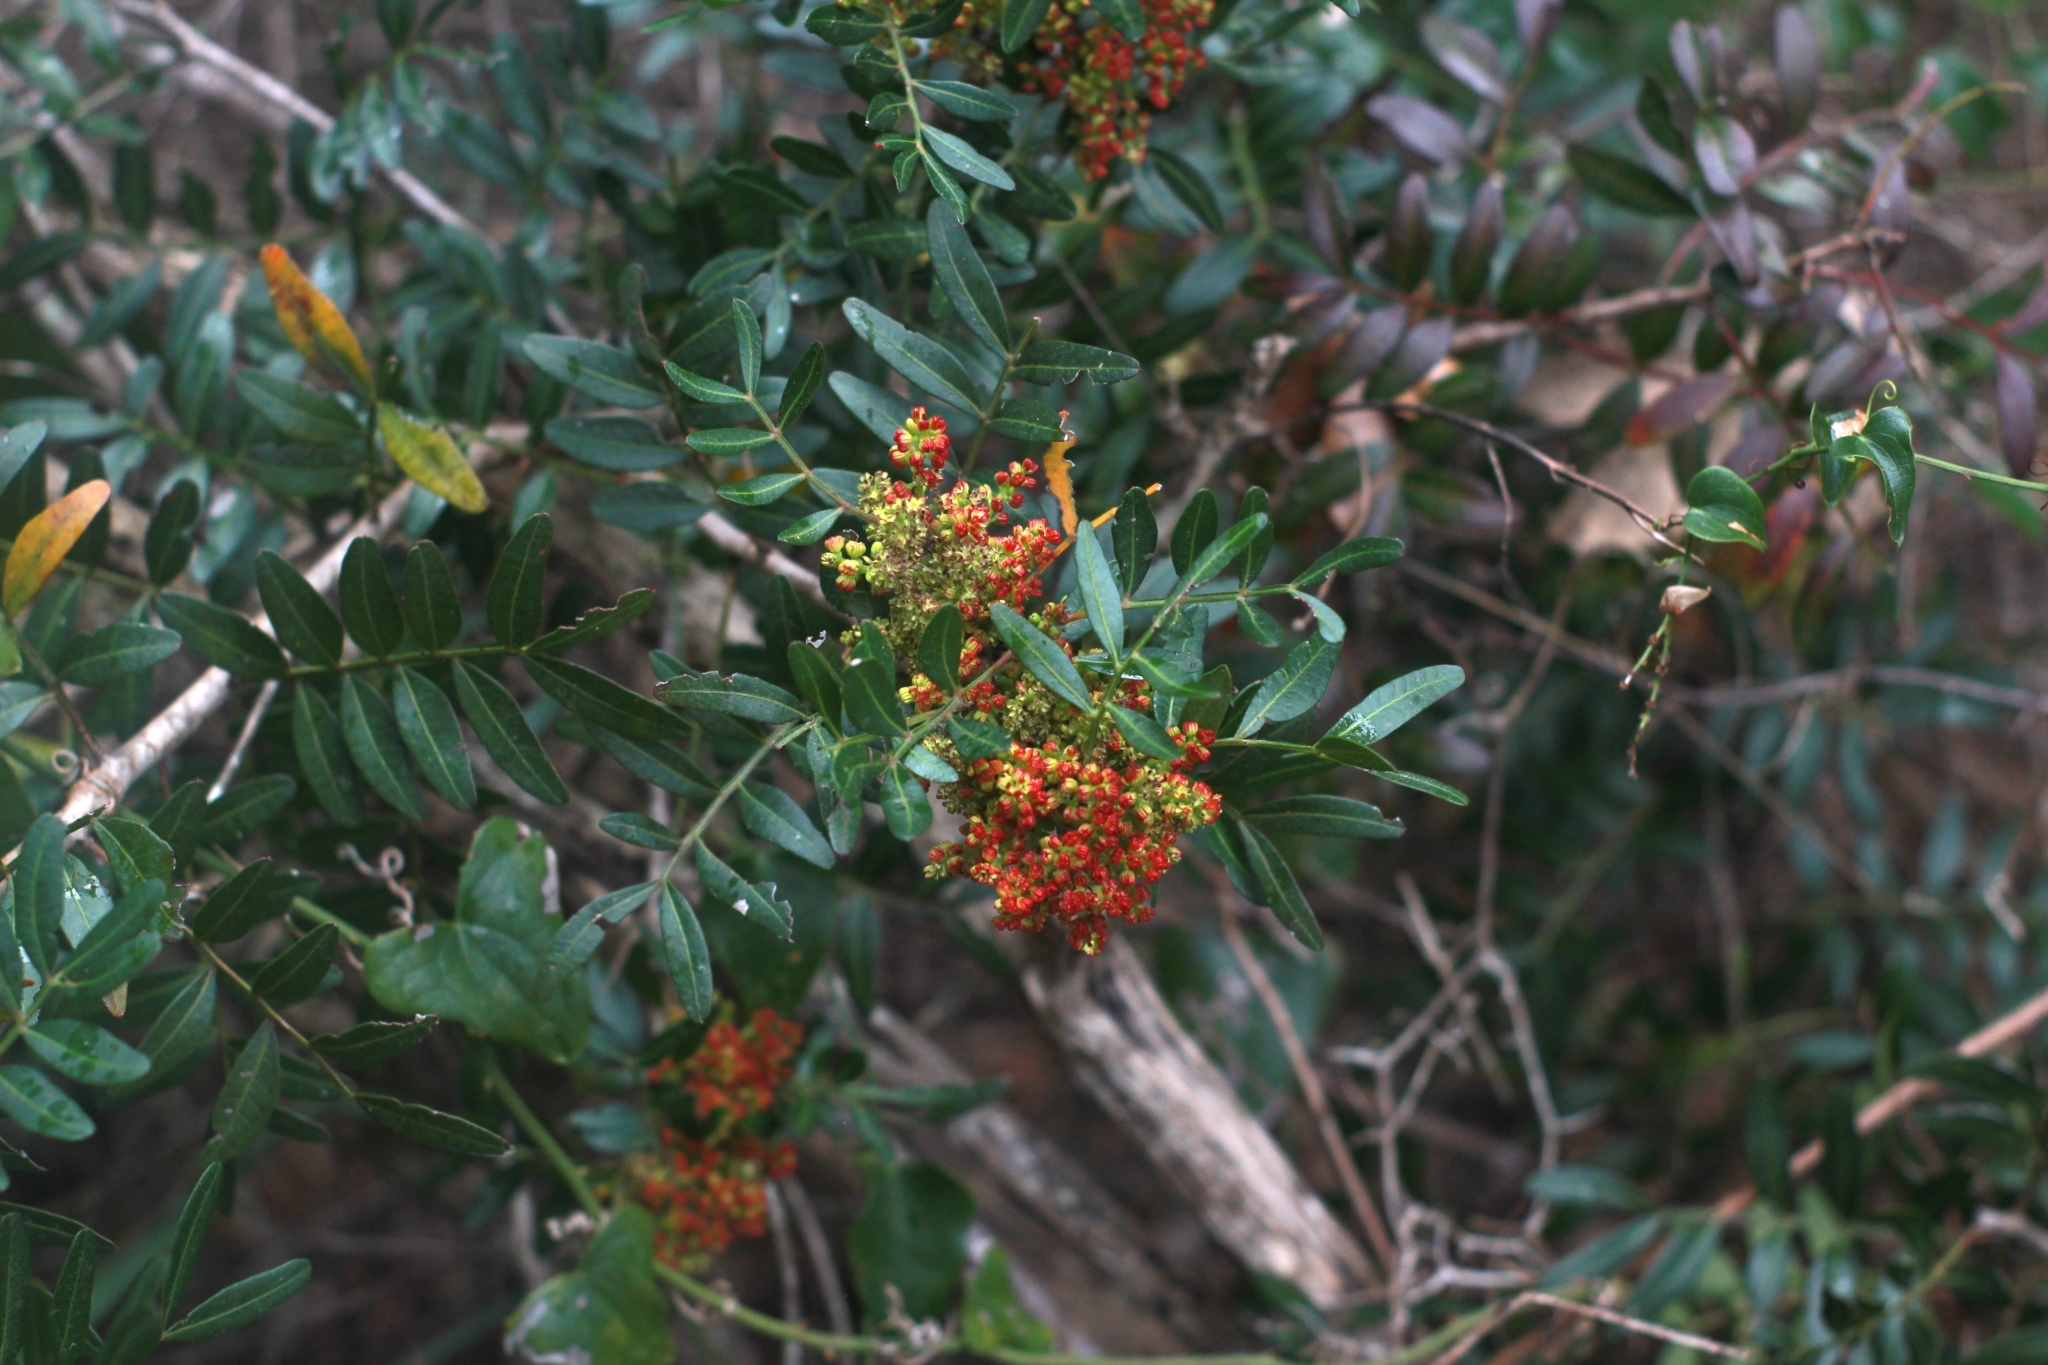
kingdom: Plantae
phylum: Tracheophyta
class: Magnoliopsida
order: Sapindales
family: Anacardiaceae
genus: Pistacia
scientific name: Pistacia lentiscus
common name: Lentisk
